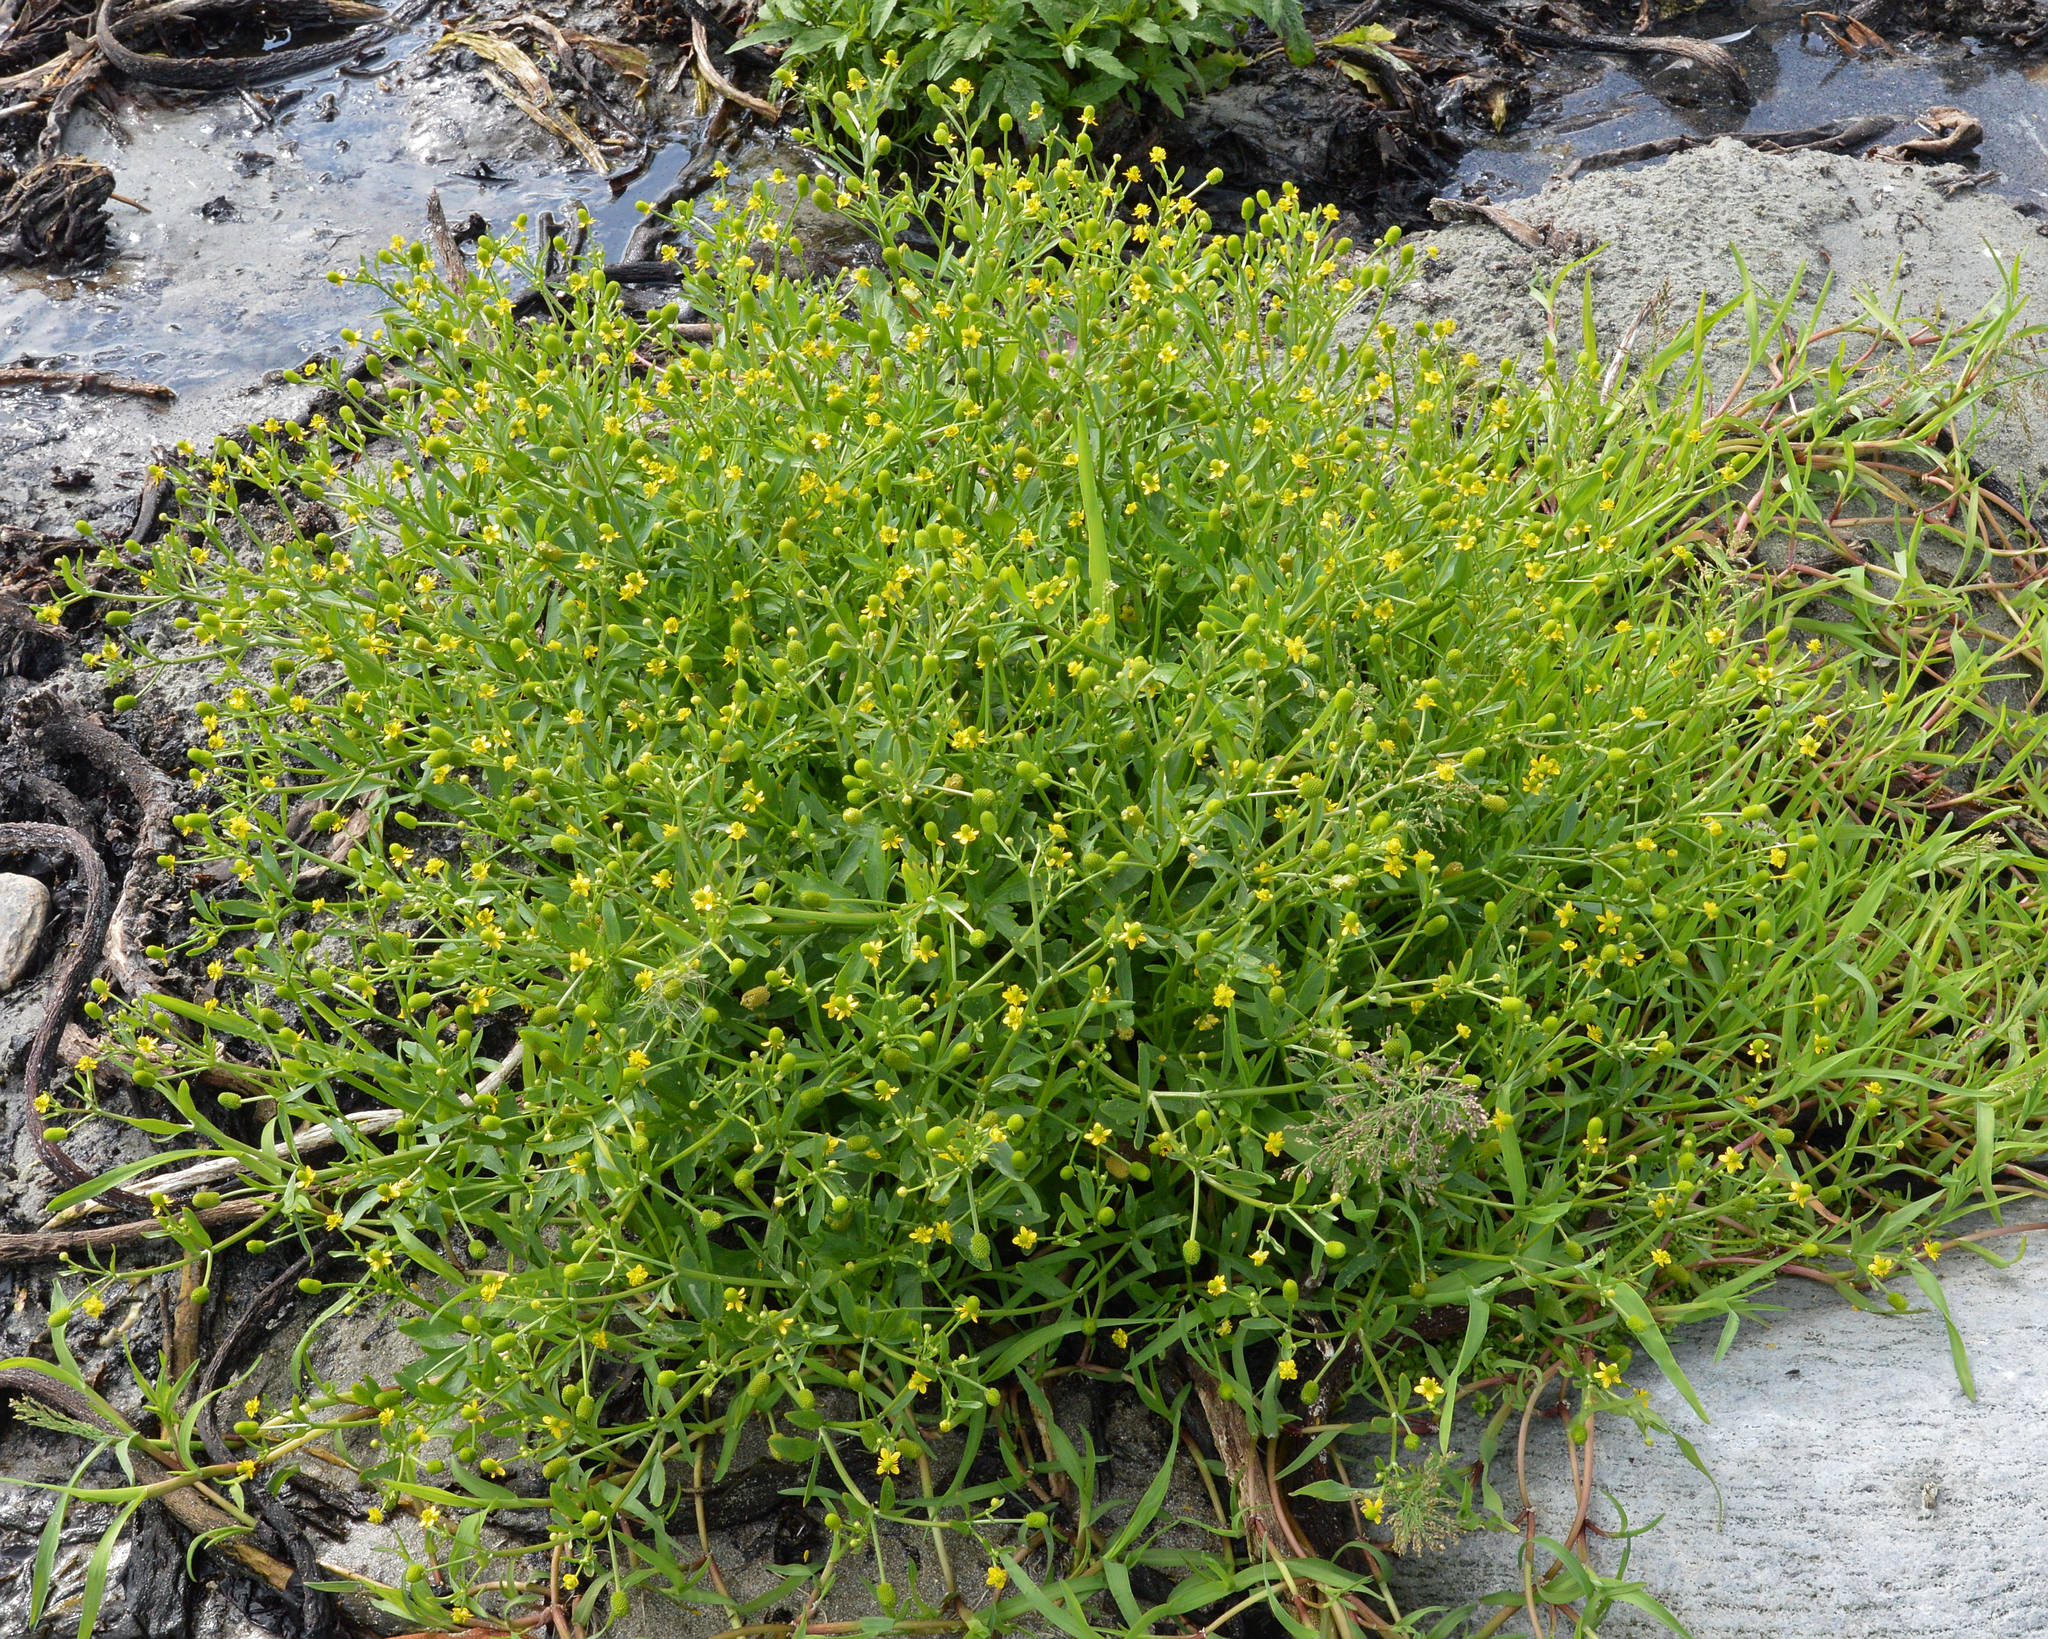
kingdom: Plantae
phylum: Tracheophyta
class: Magnoliopsida
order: Ranunculales
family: Ranunculaceae
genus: Ranunculus
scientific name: Ranunculus sceleratus
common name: Celery-leaved buttercup
